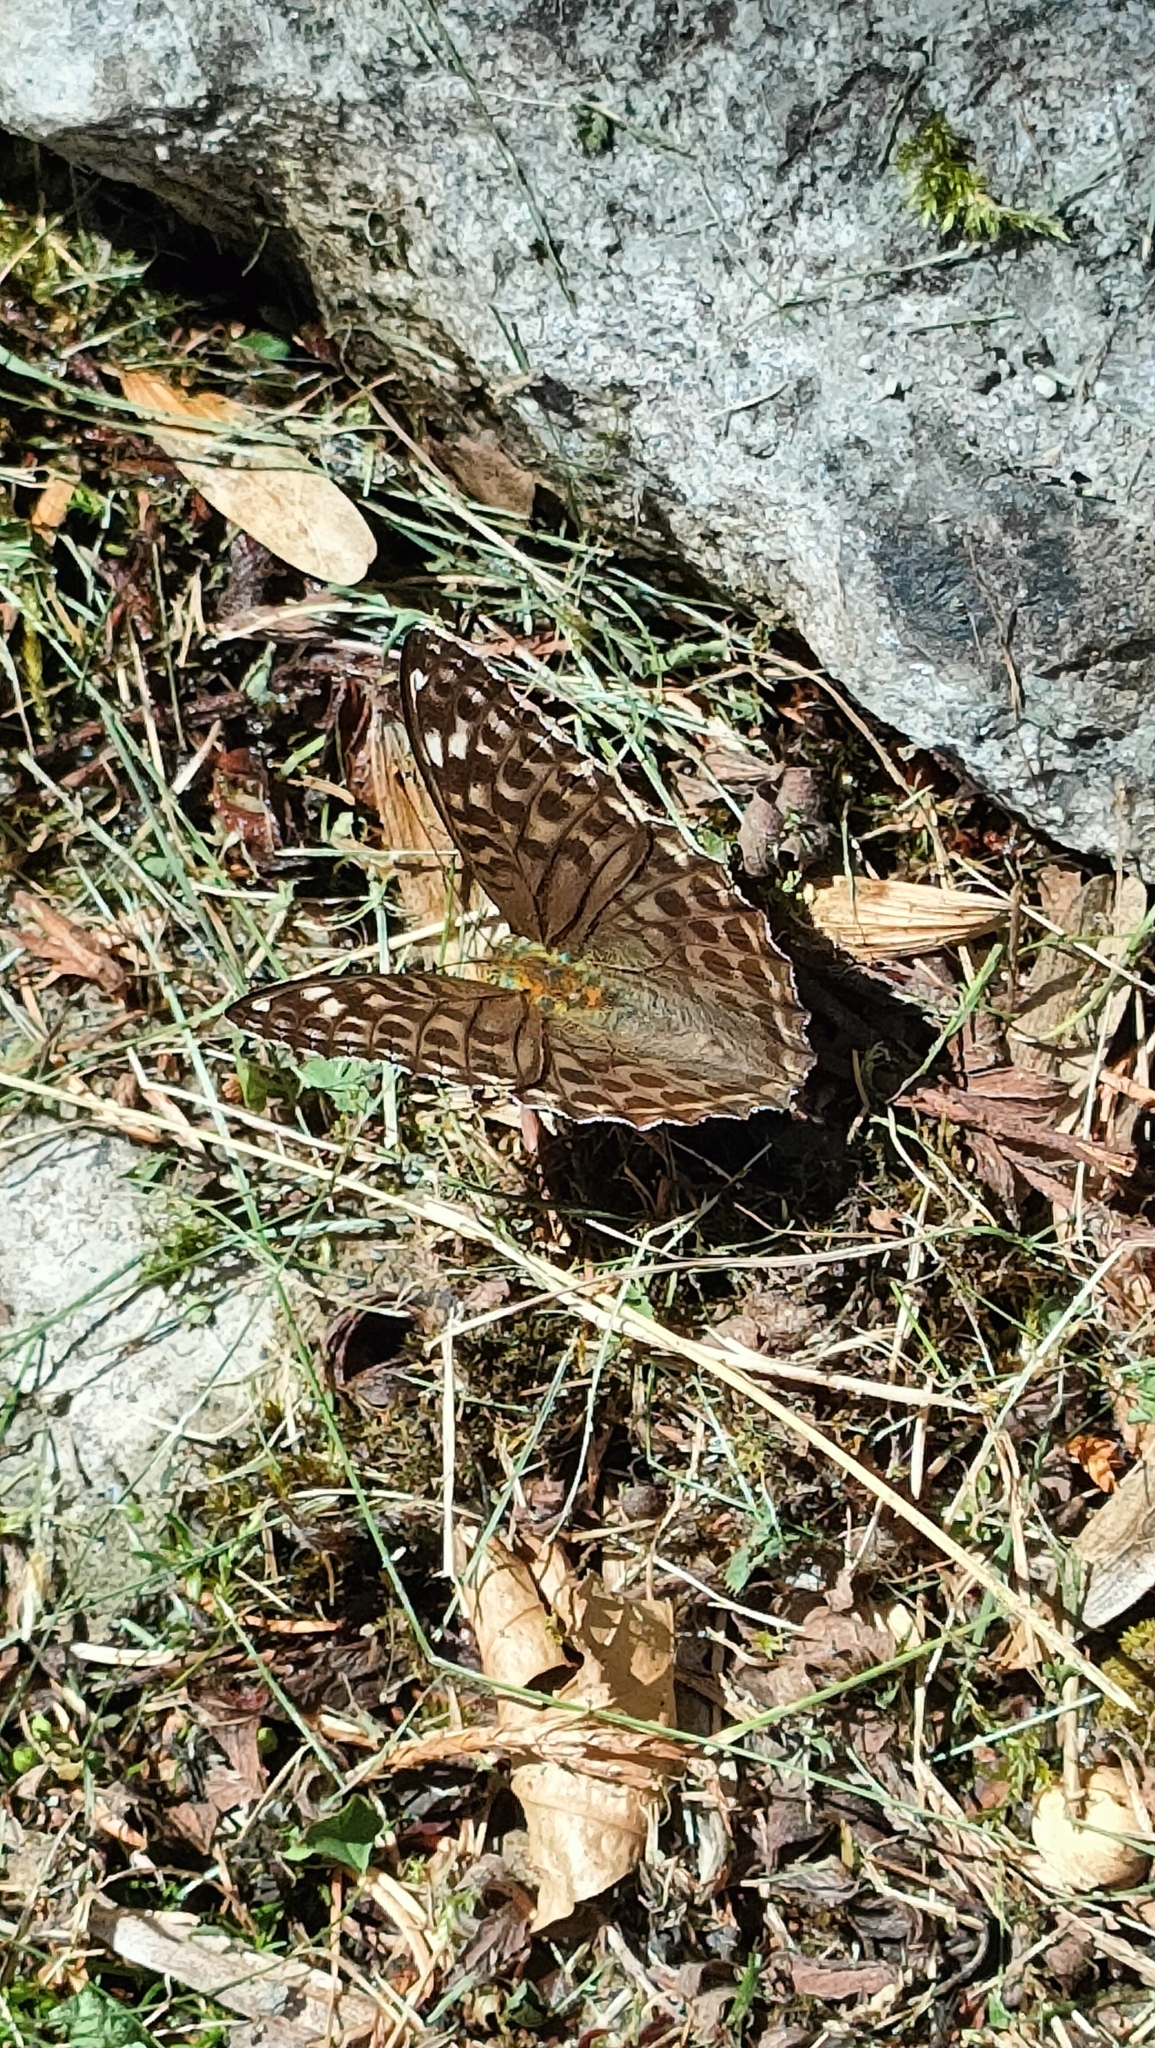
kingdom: Animalia
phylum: Arthropoda
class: Insecta
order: Lepidoptera
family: Nymphalidae
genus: Argynnis
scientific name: Argynnis paphia
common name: Silver-washed fritillary
